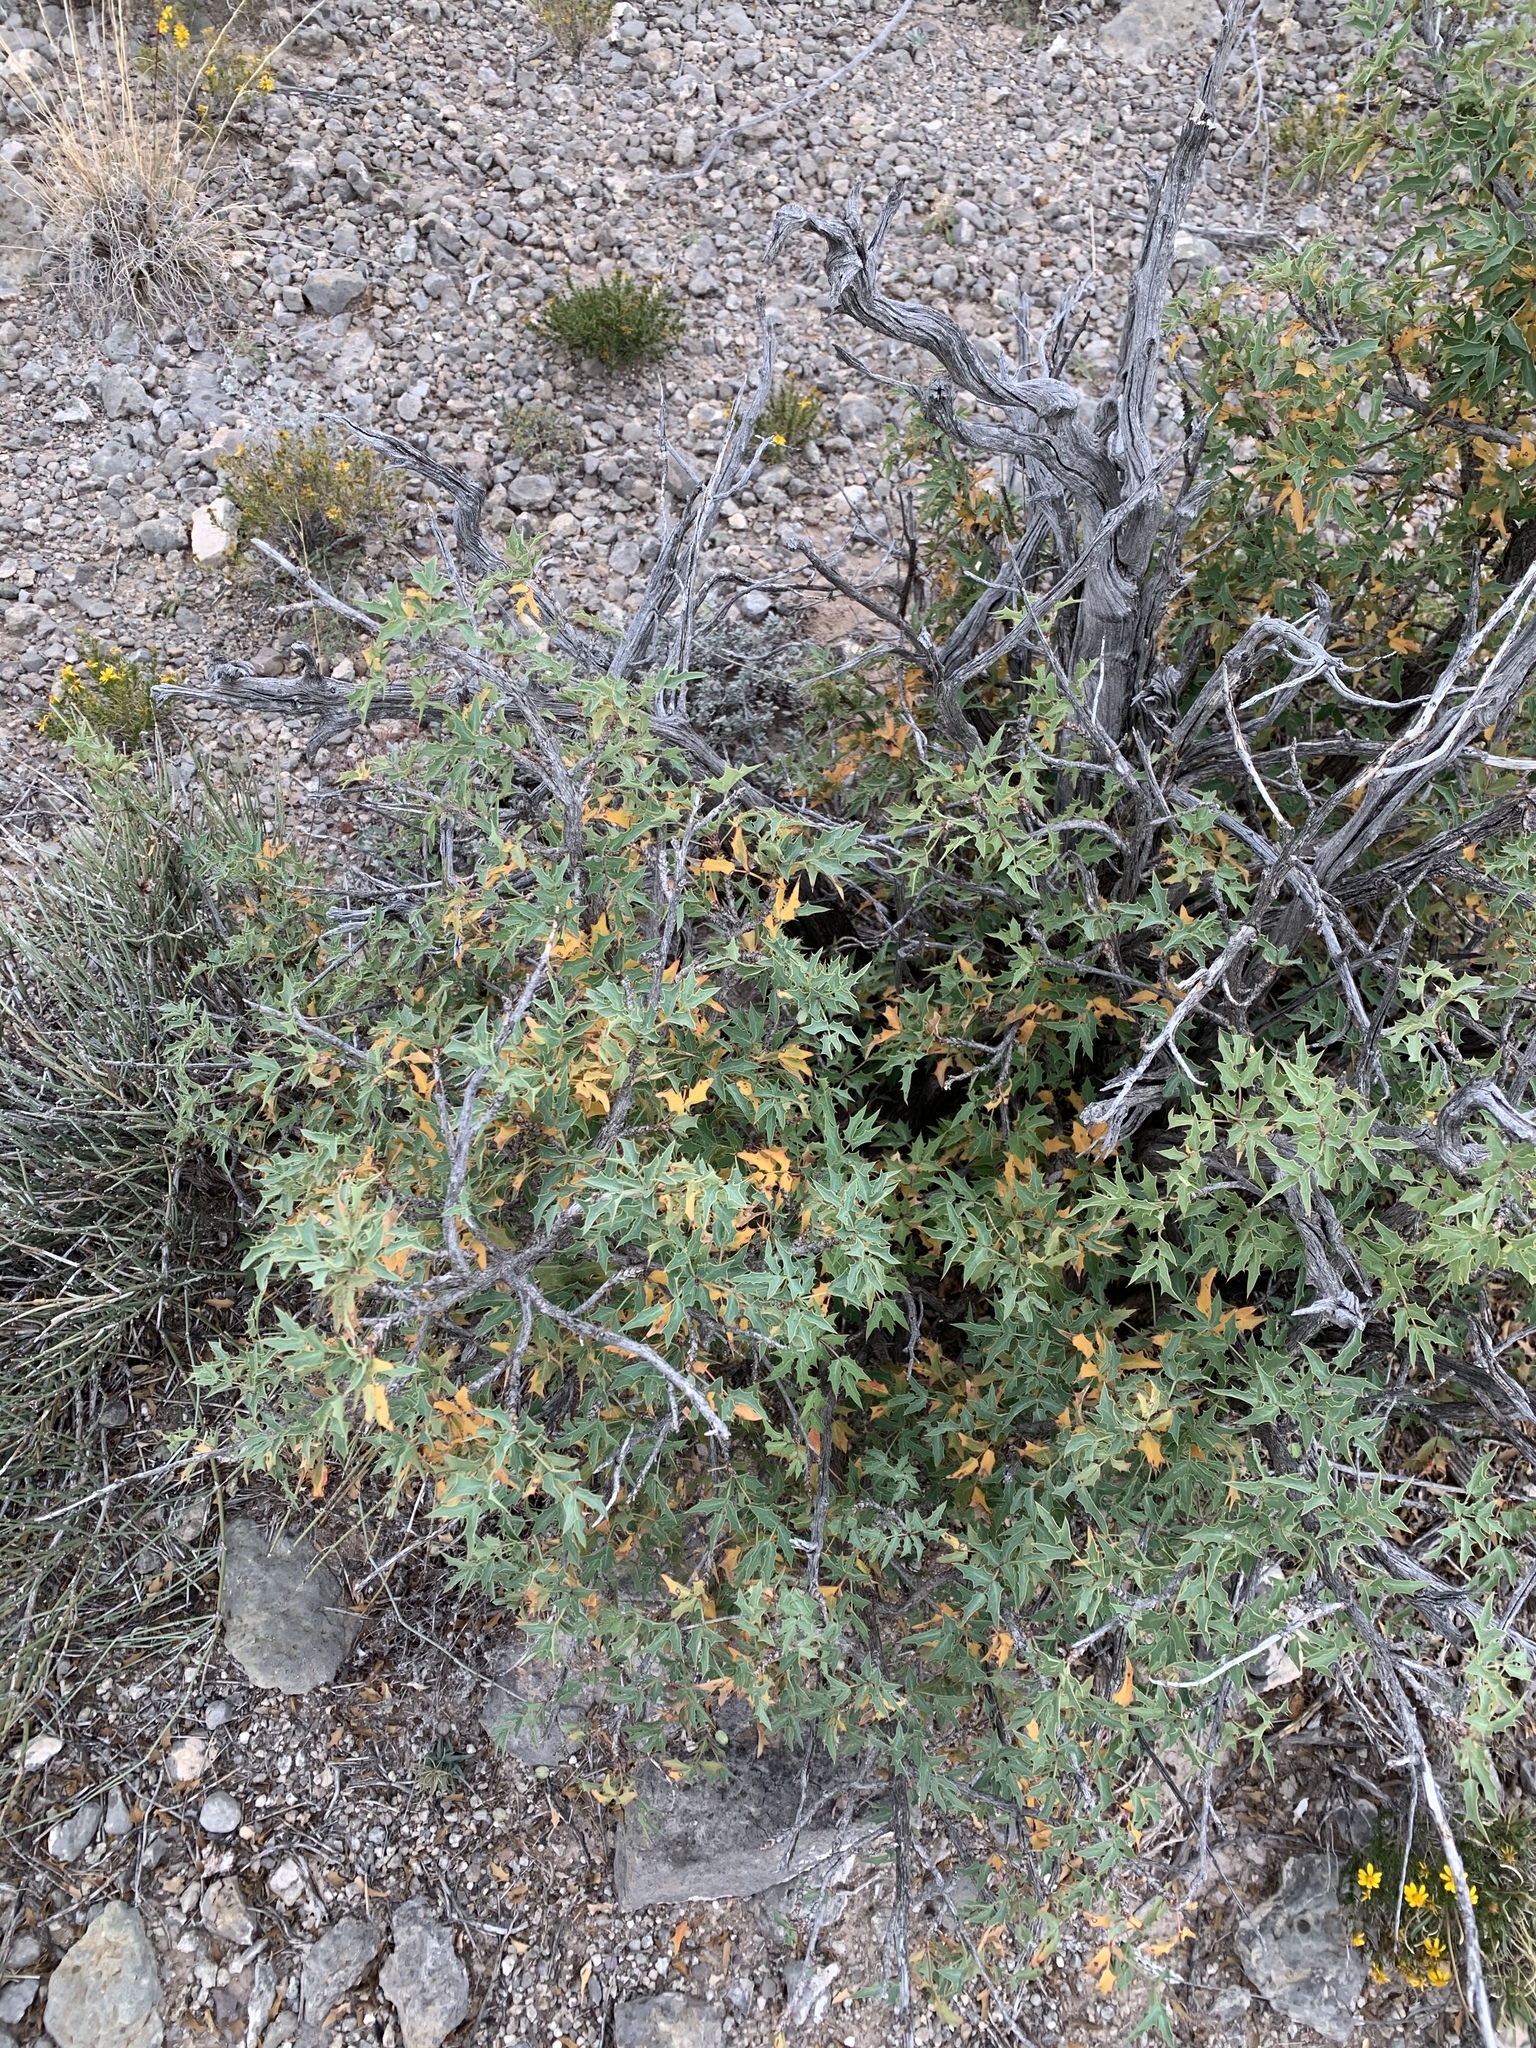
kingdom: Plantae
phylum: Tracheophyta
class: Magnoliopsida
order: Ranunculales
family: Berberidaceae
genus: Alloberberis
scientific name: Alloberberis haematocarpa
